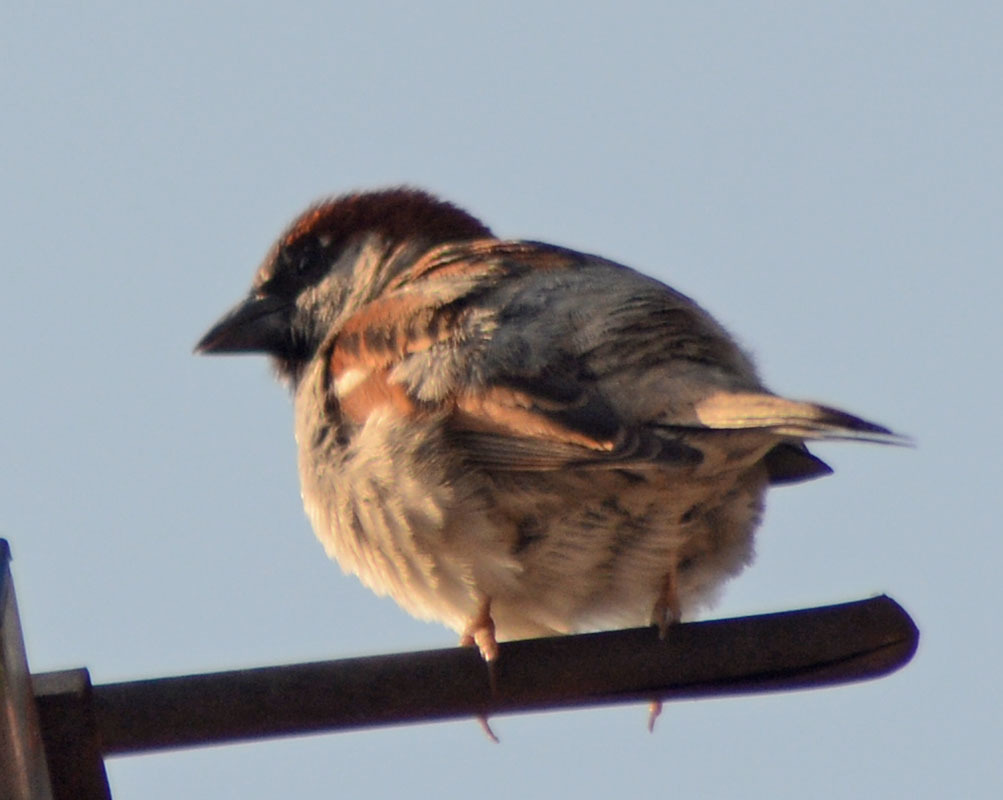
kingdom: Animalia
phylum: Chordata
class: Aves
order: Passeriformes
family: Passeridae
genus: Passer
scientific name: Passer domesticus
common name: House sparrow
